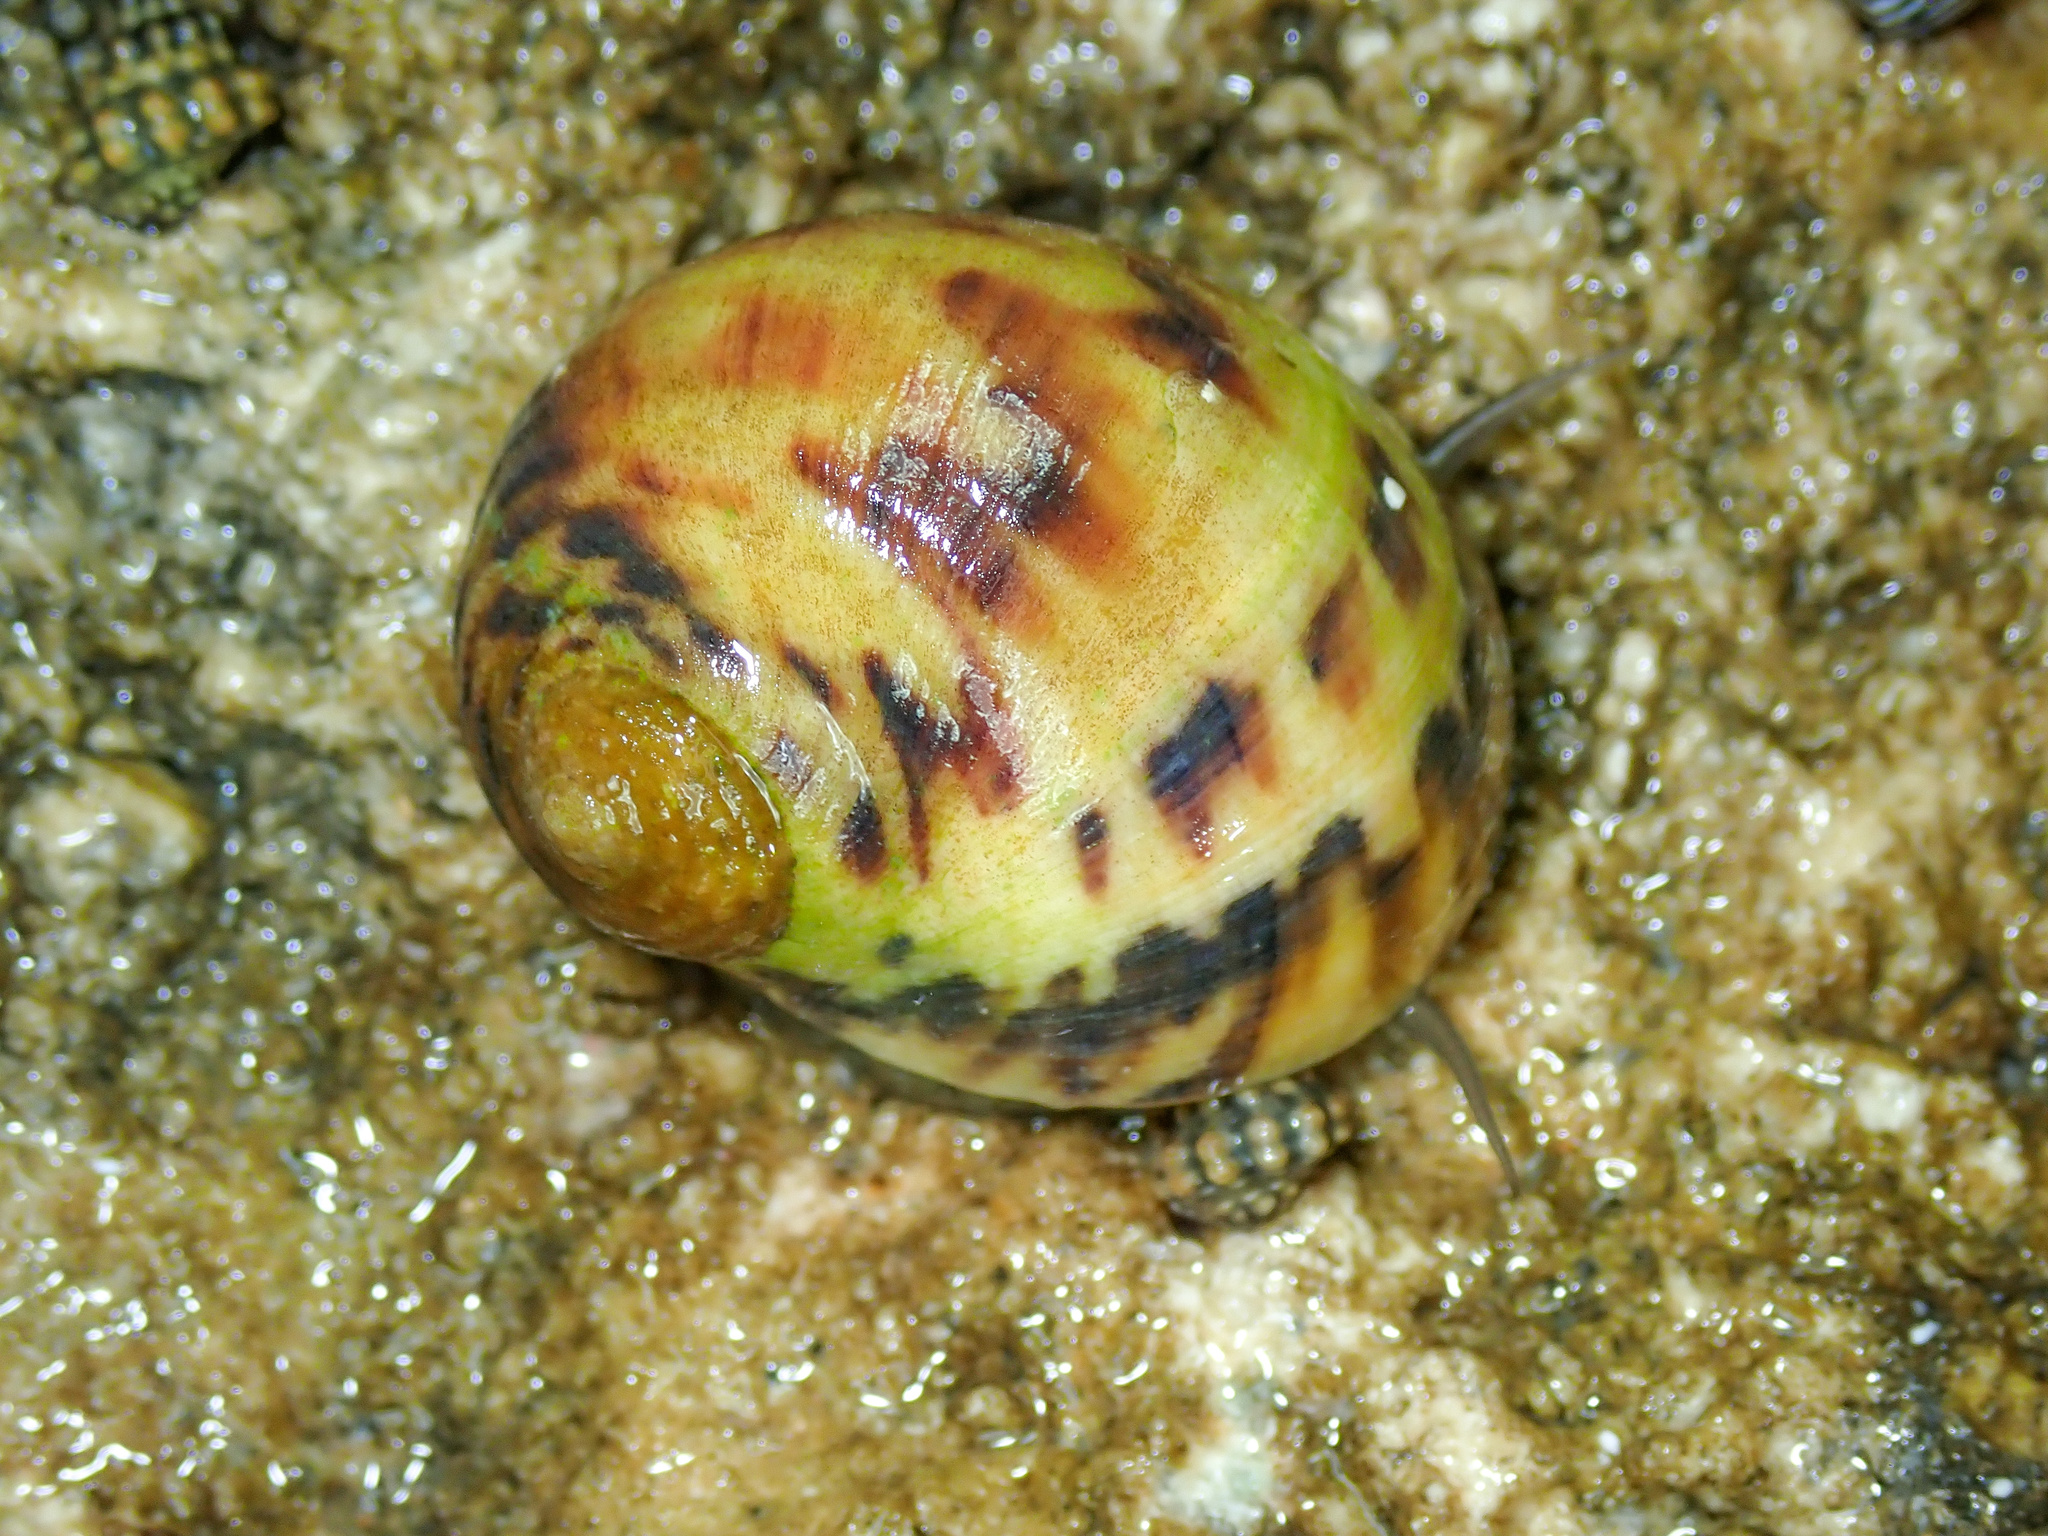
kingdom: Animalia
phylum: Mollusca
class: Gastropoda
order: Cycloneritida
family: Neritidae
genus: Nerita
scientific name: Nerita peloronta
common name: Bleeding tooth
